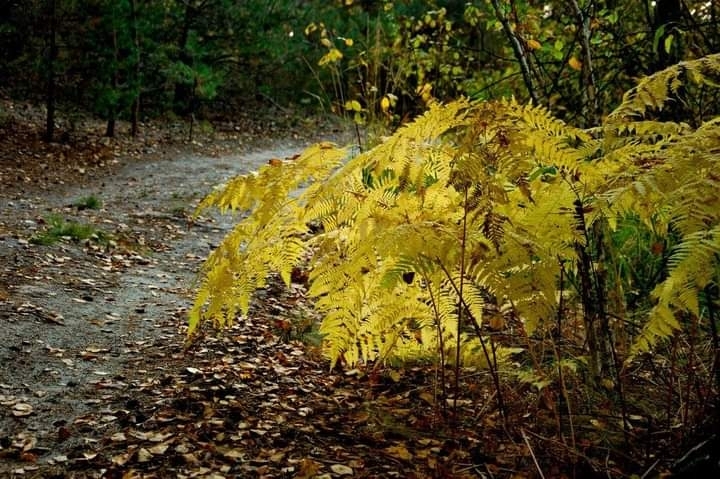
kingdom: Plantae
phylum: Tracheophyta
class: Polypodiopsida
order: Polypodiales
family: Dennstaedtiaceae
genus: Pteridium
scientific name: Pteridium aquilinum
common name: Bracken
